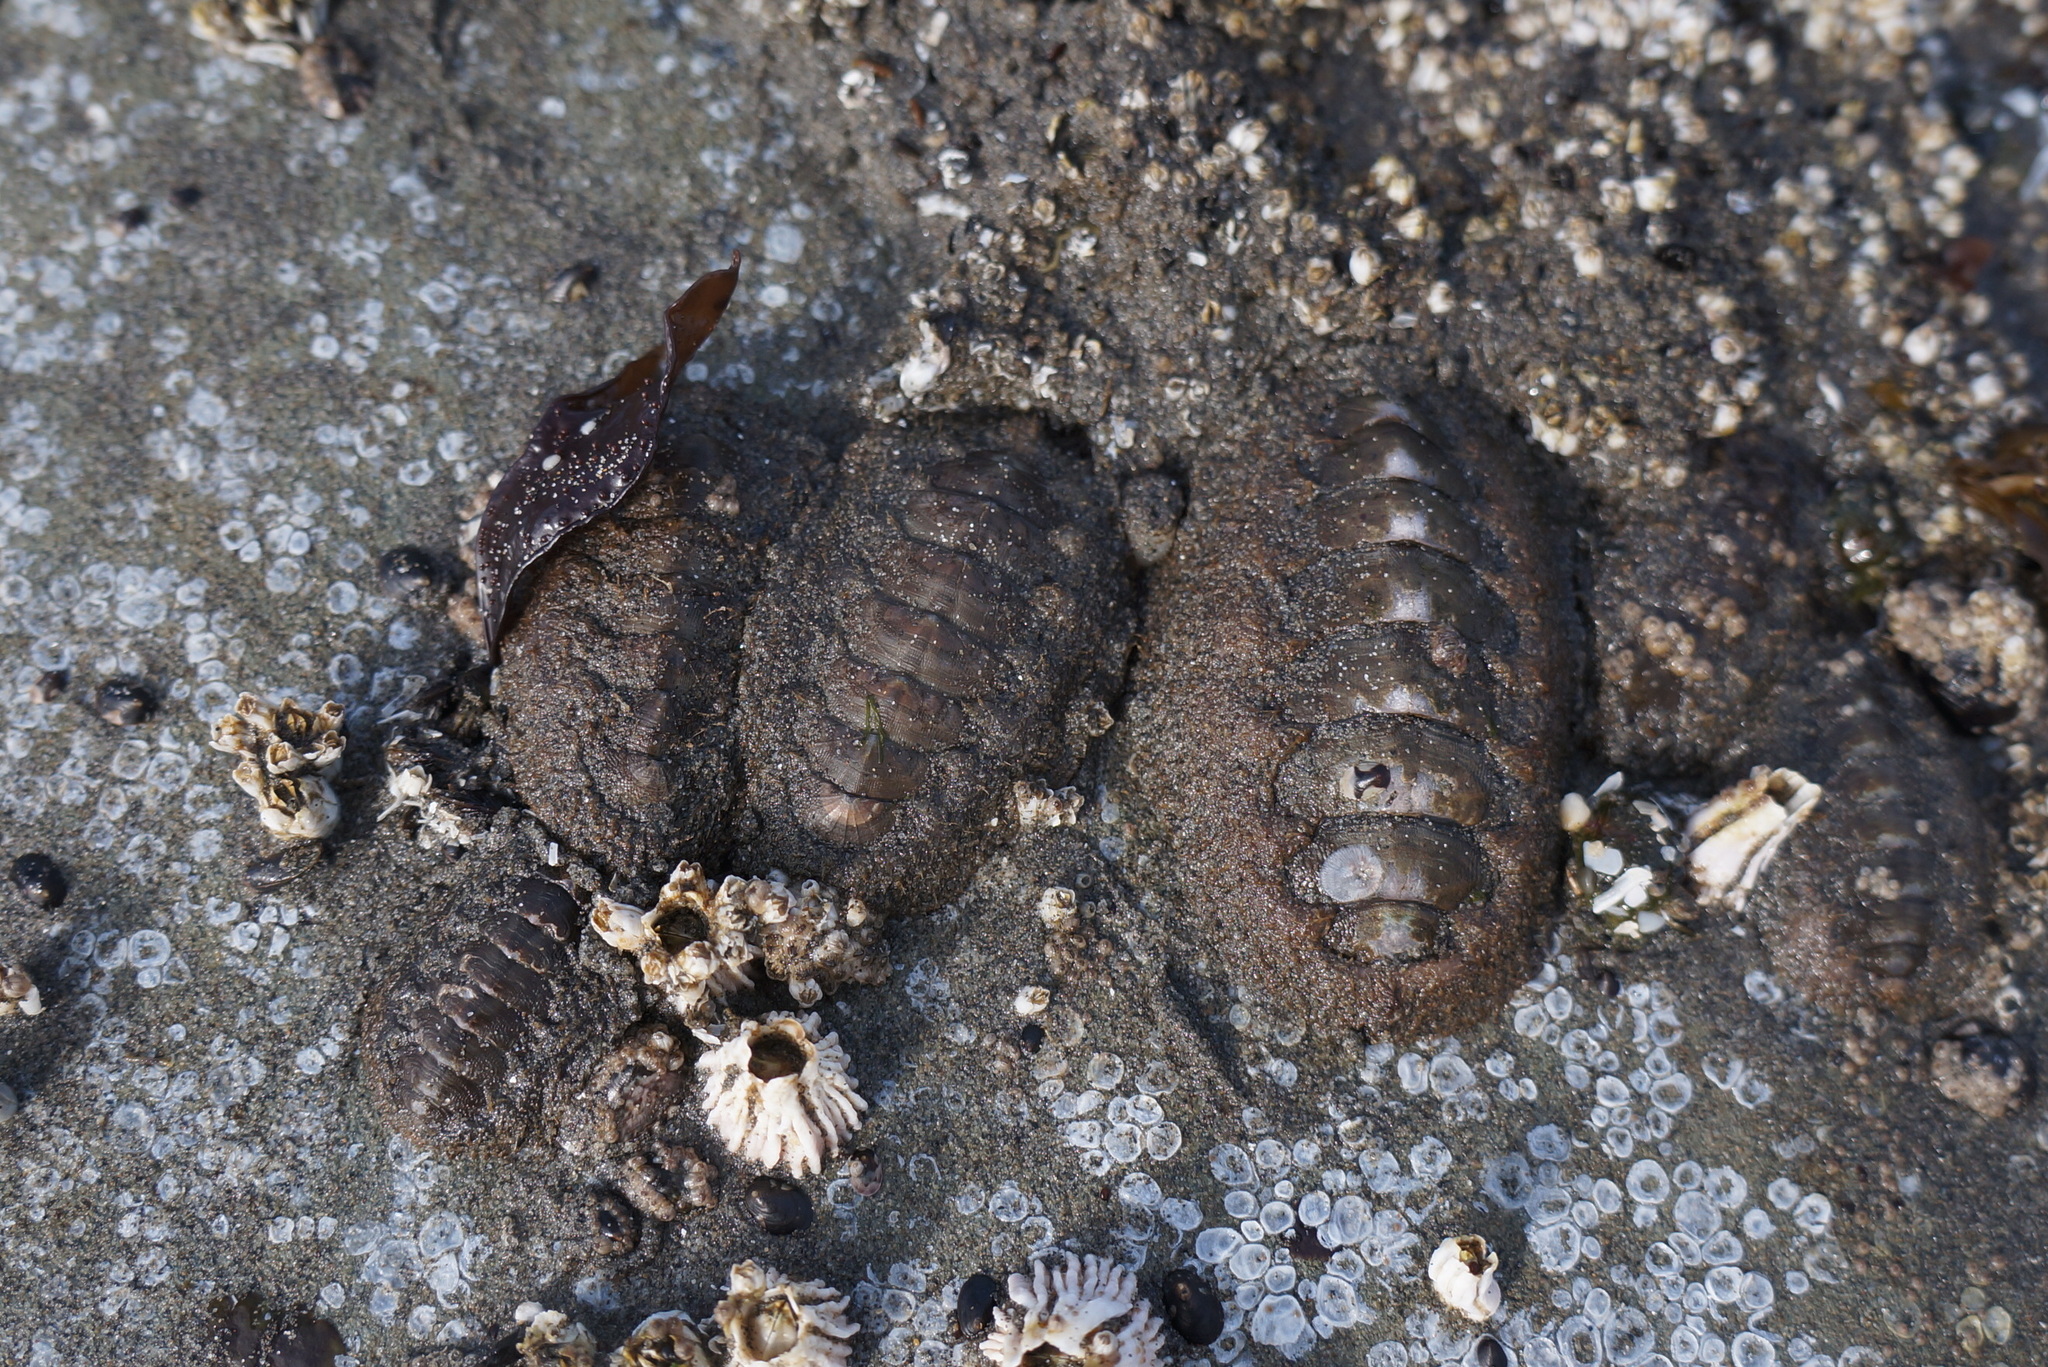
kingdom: Animalia
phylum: Mollusca
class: Polyplacophora
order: Chitonida
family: Mopaliidae
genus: Mopalia
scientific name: Mopalia hindsii
